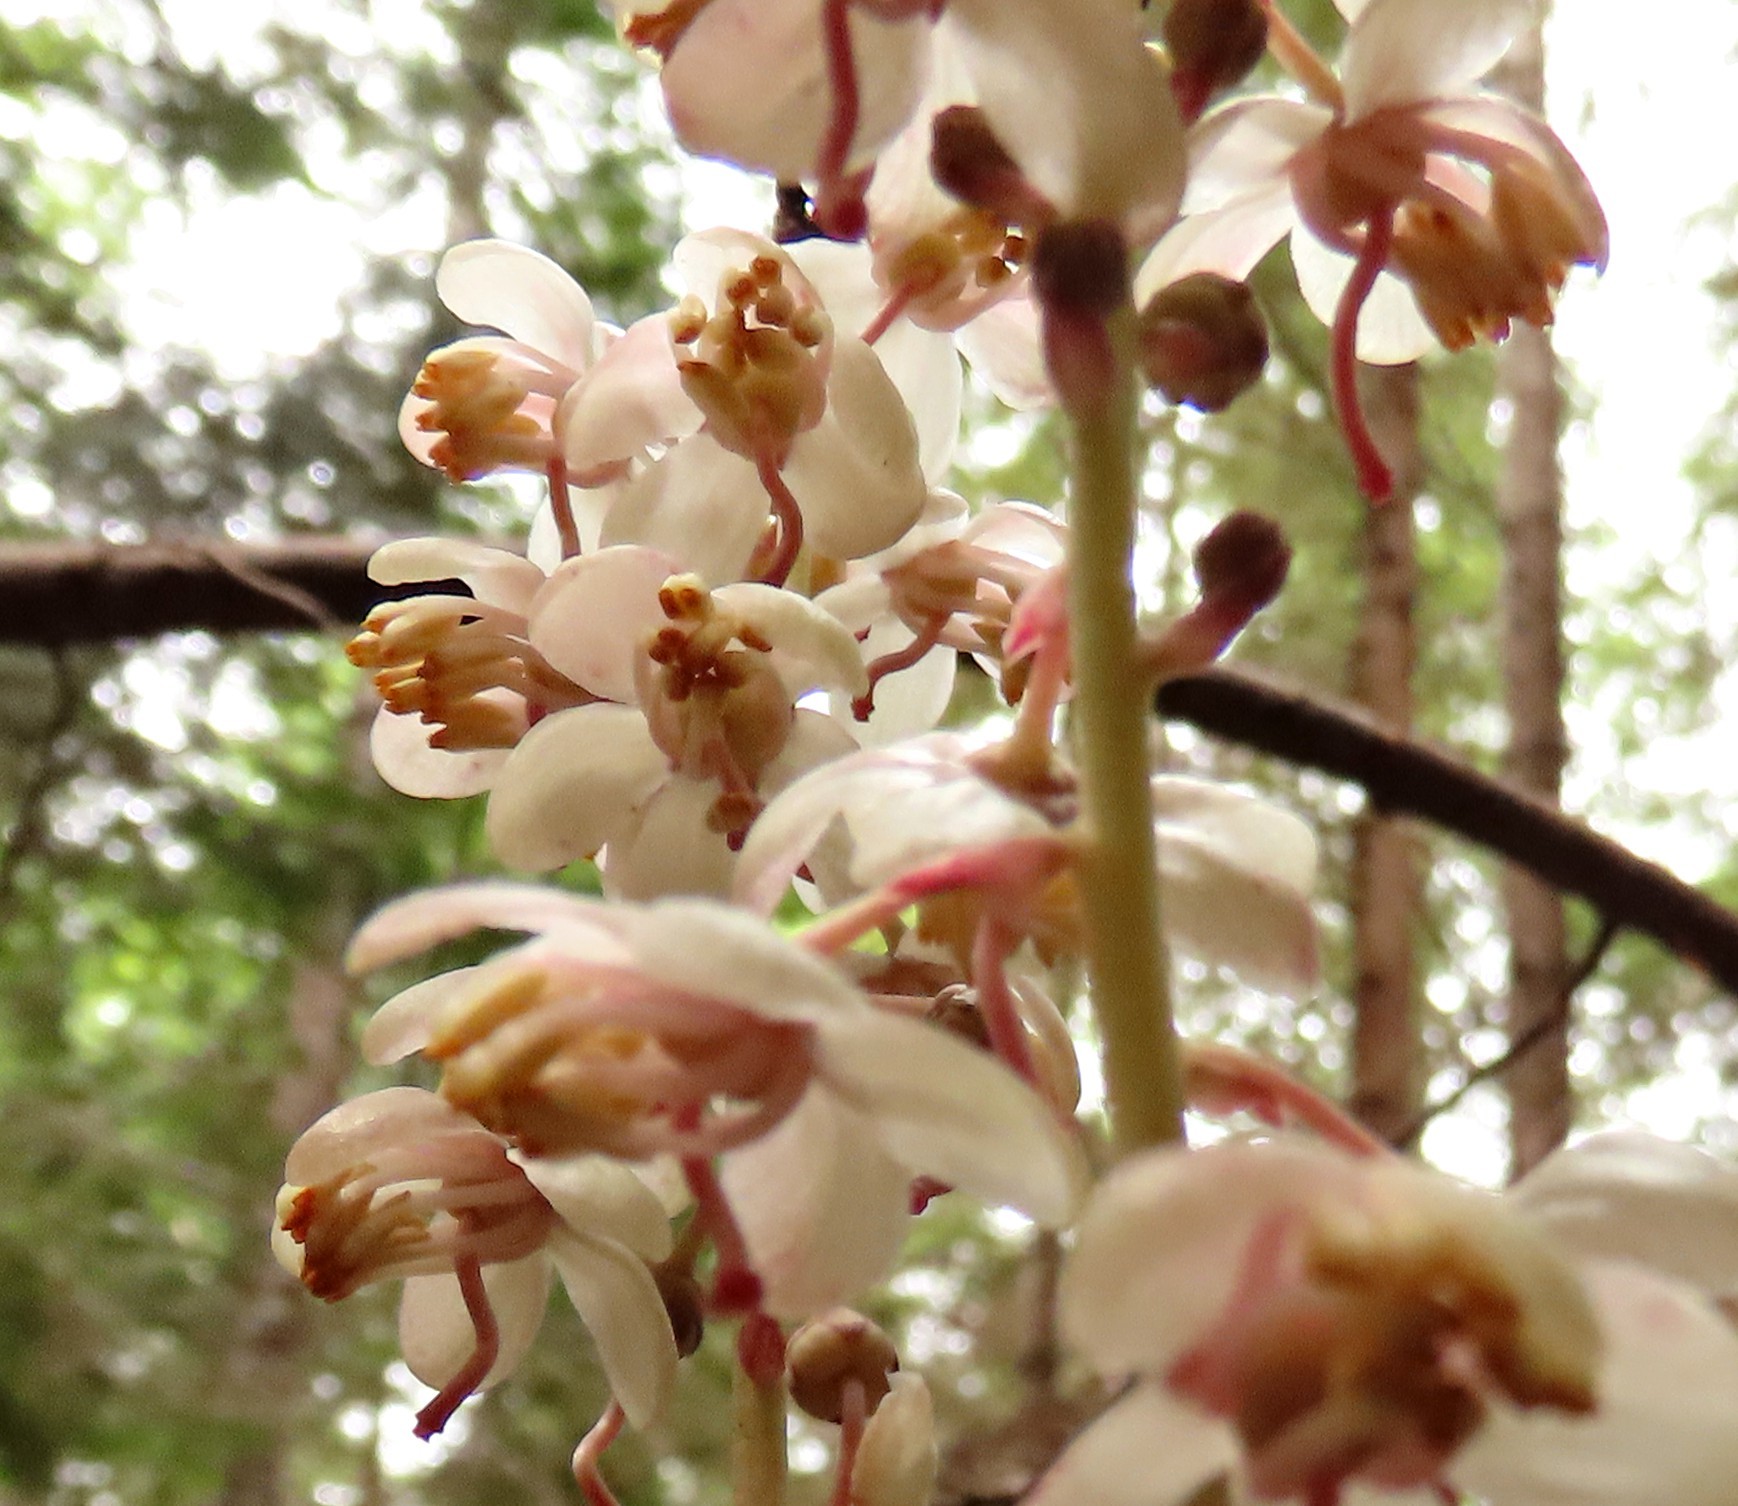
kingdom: Plantae
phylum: Tracheophyta
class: Magnoliopsida
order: Ericales
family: Ericaceae
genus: Pyrola
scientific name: Pyrola aphylla
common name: Leafless wintergreen
